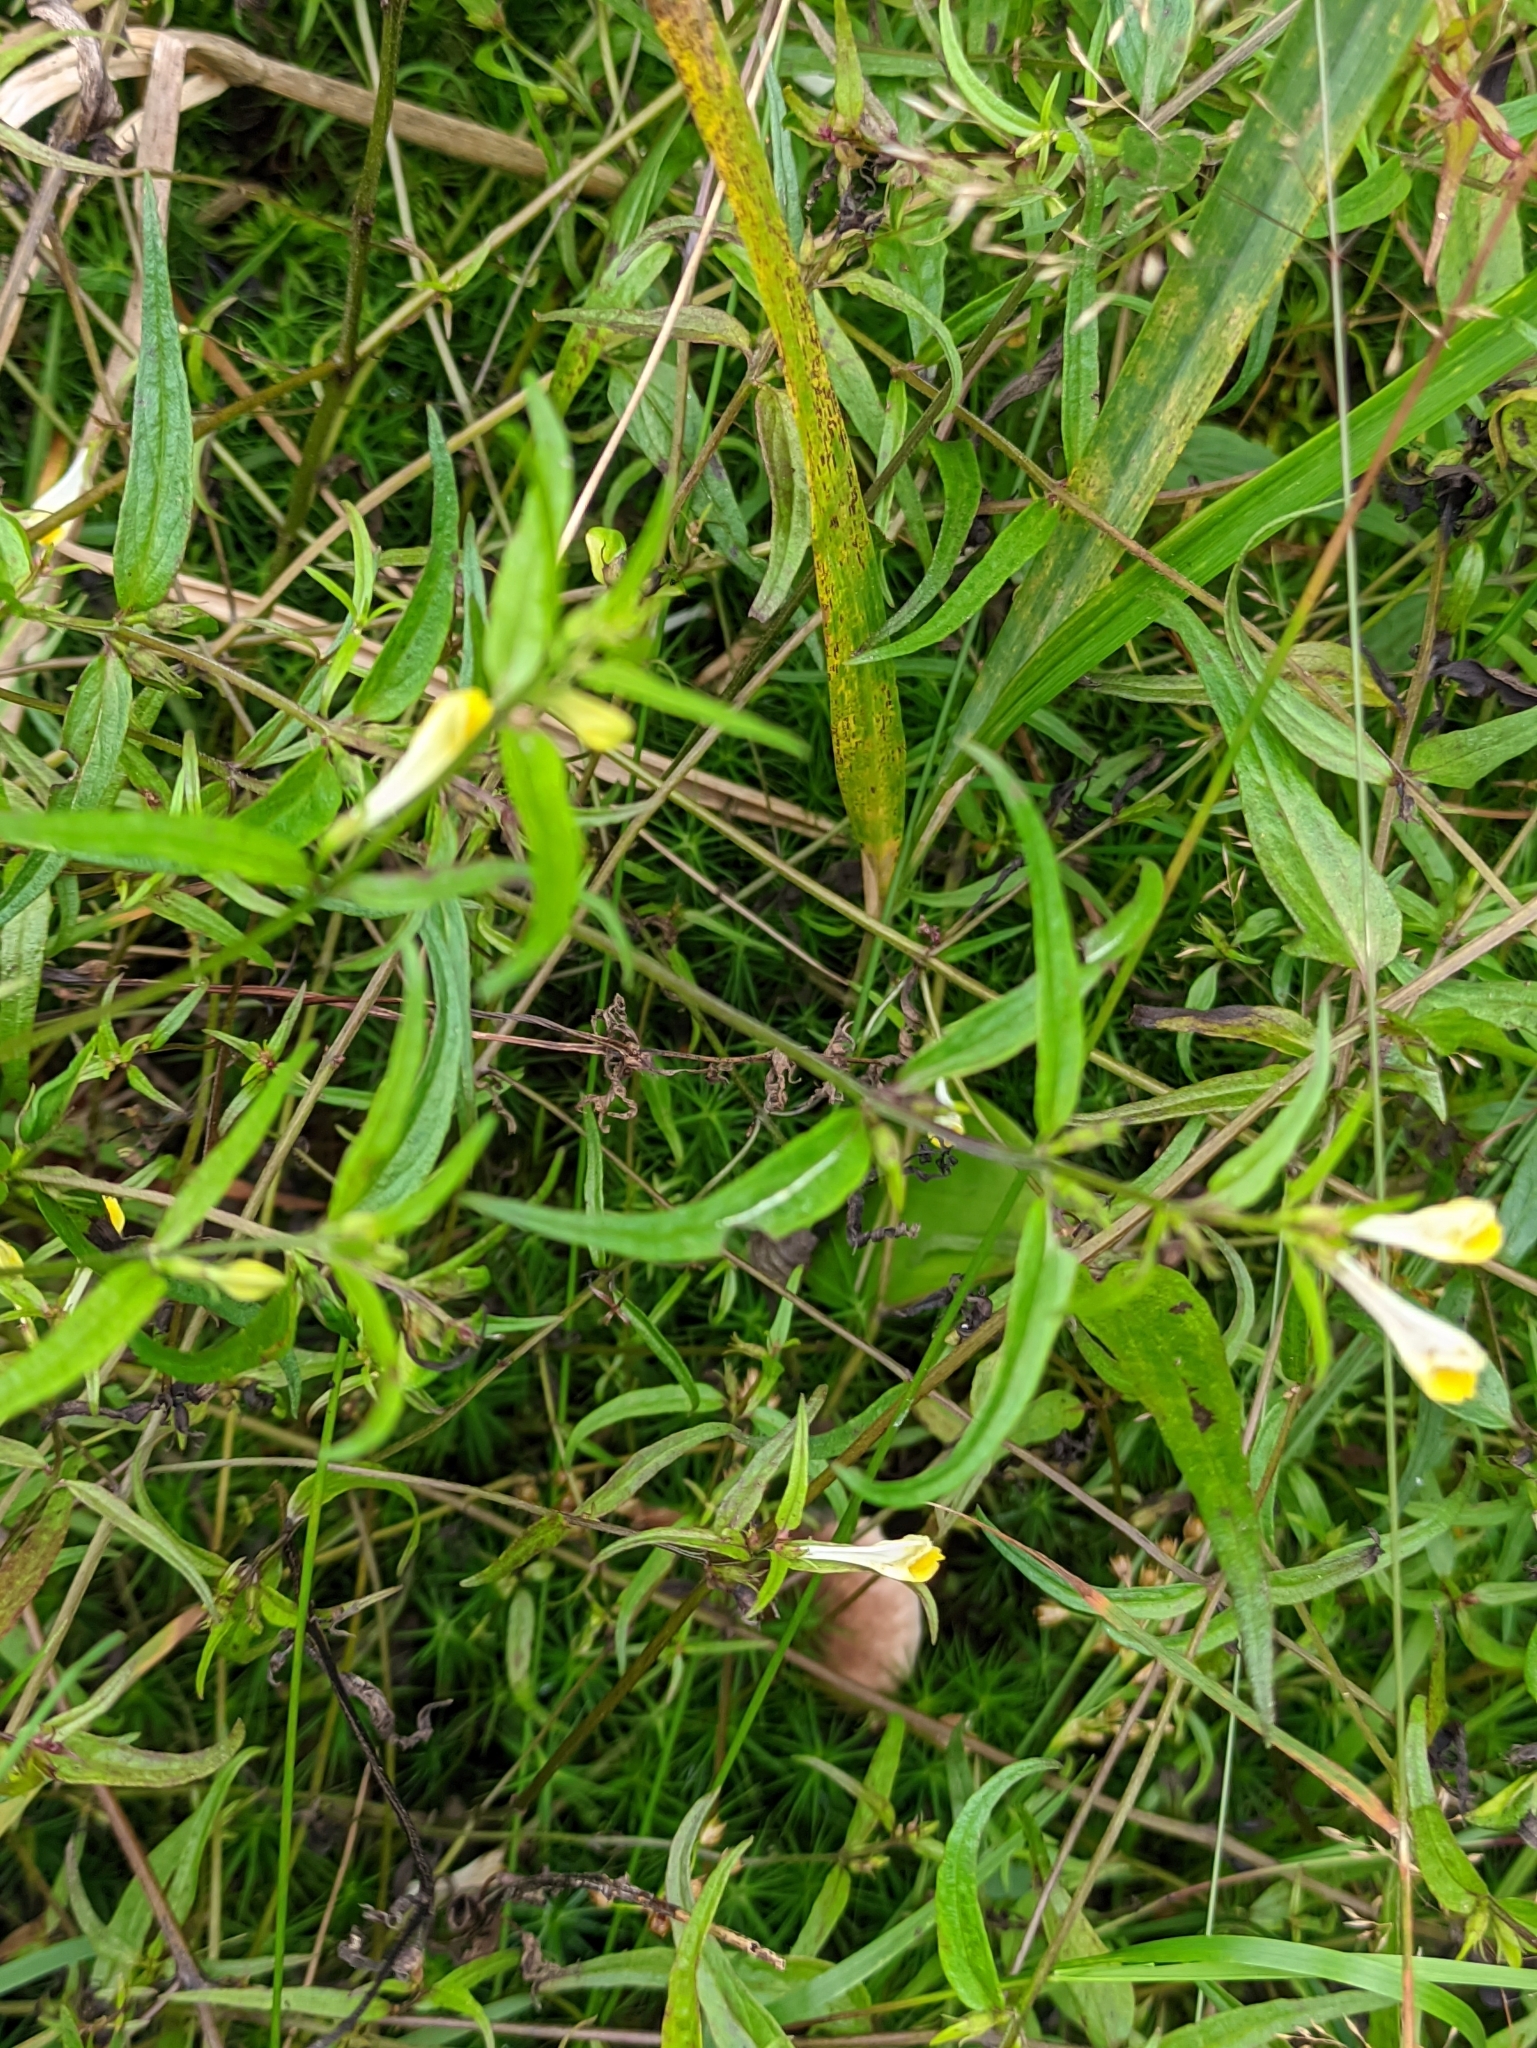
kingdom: Plantae
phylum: Tracheophyta
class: Magnoliopsida
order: Lamiales
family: Orobanchaceae
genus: Melampyrum
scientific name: Melampyrum pratense
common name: Common cow-wheat
